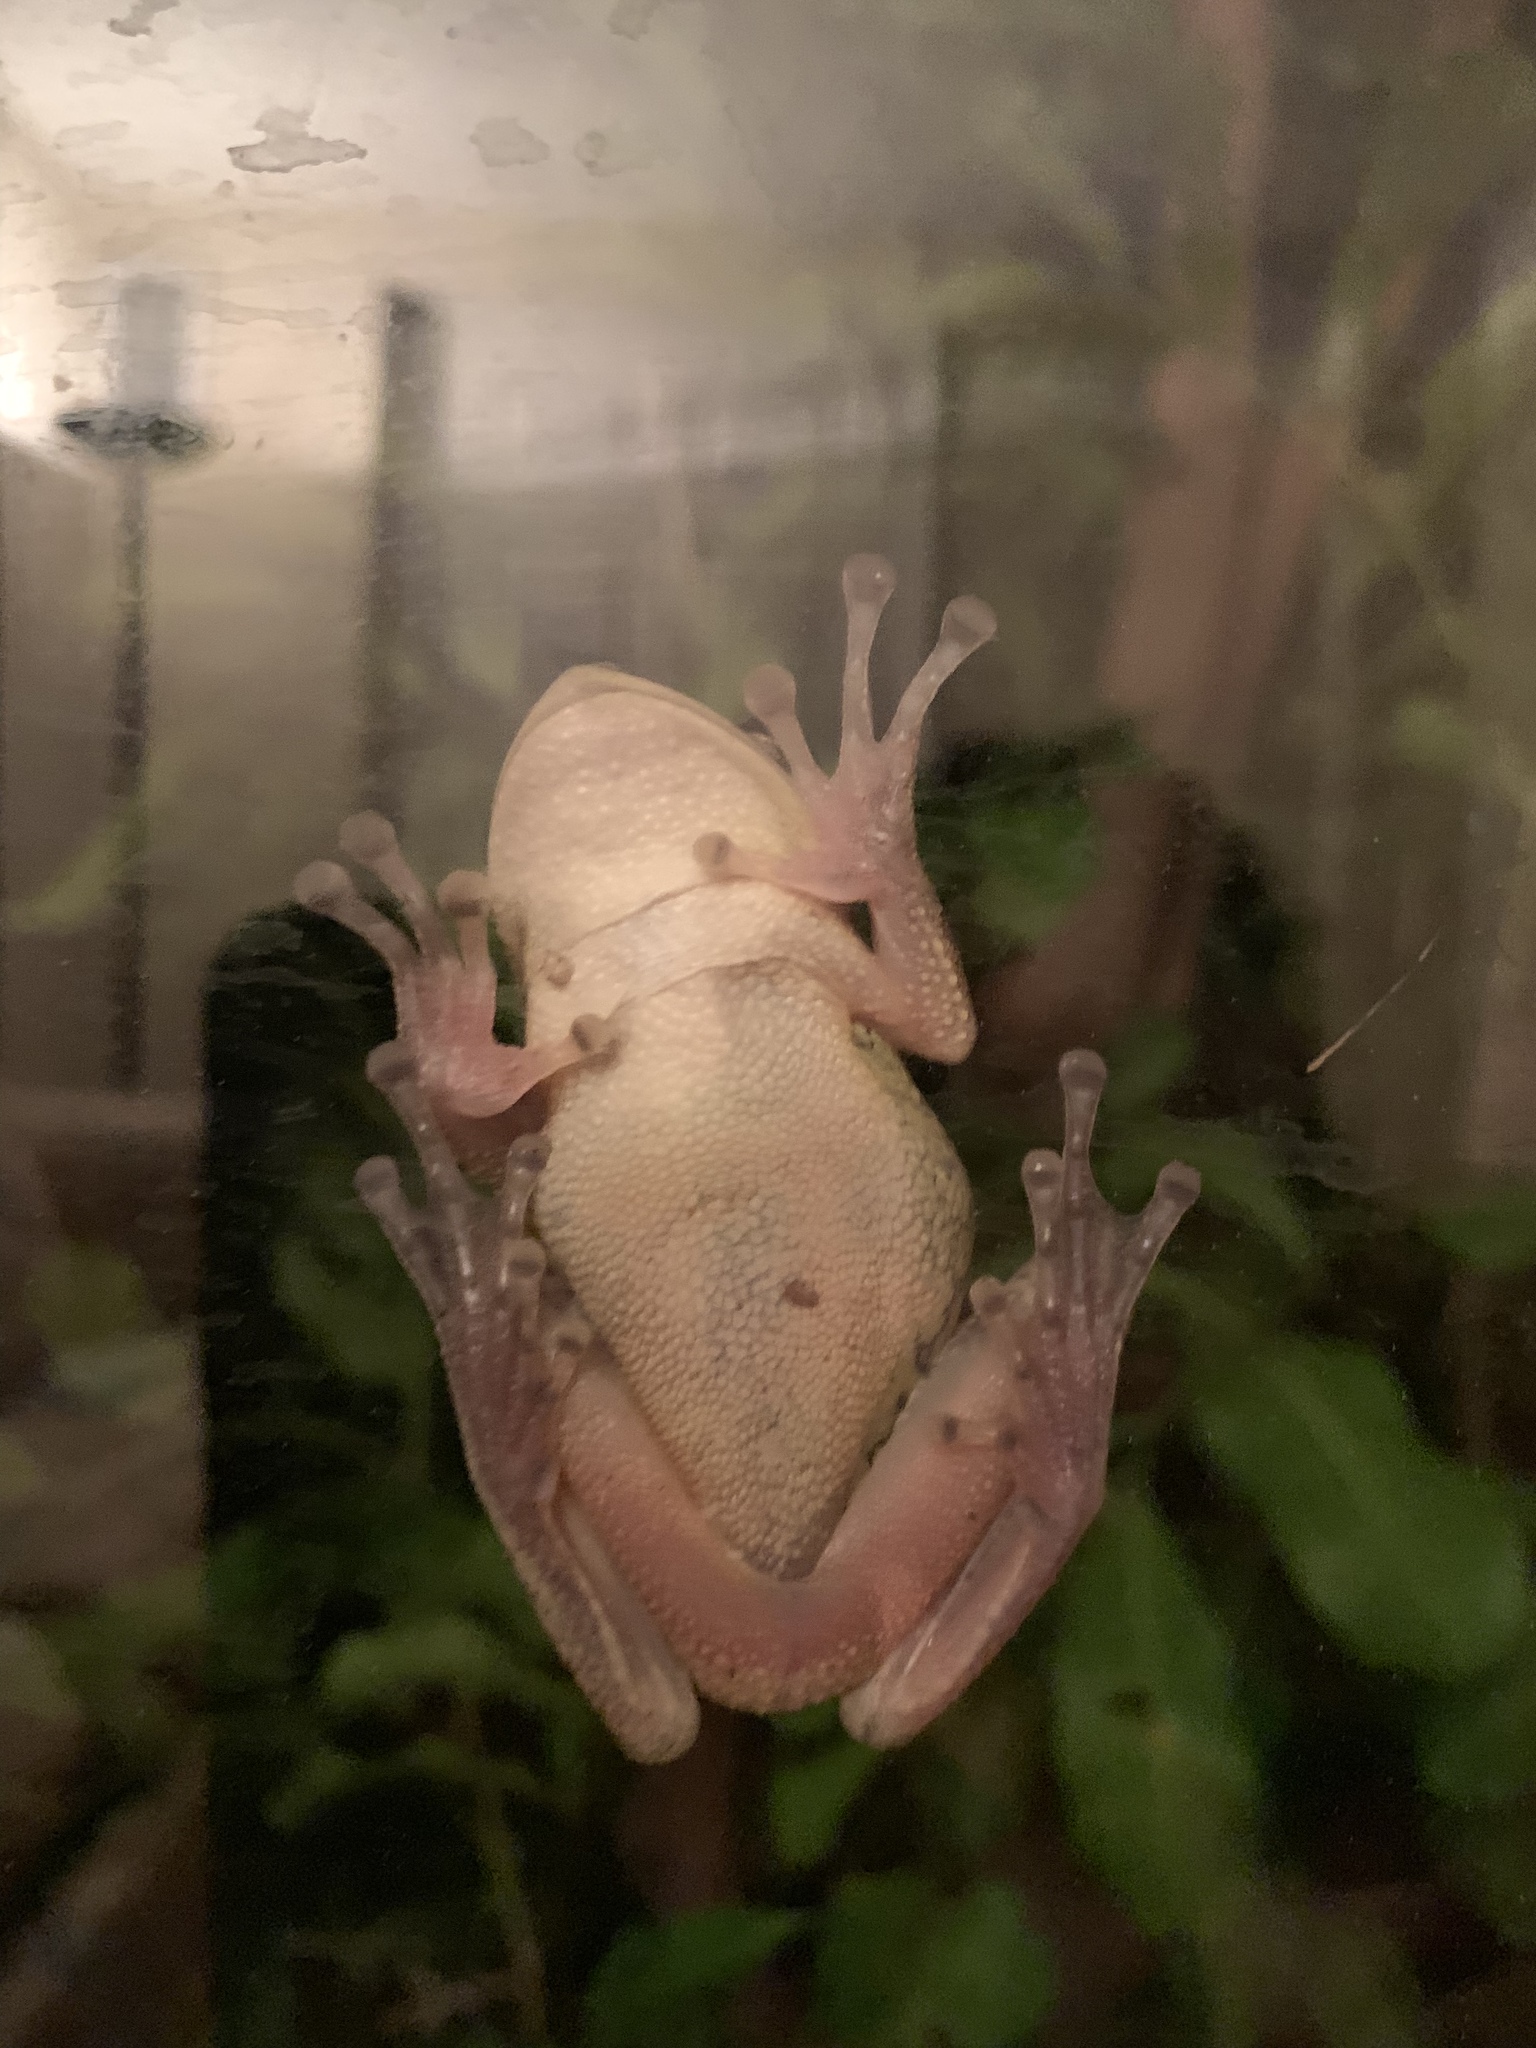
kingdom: Animalia
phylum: Chordata
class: Amphibia
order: Anura
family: Hylidae
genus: Osteopilus
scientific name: Osteopilus septentrionalis
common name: Cuban treefrog
